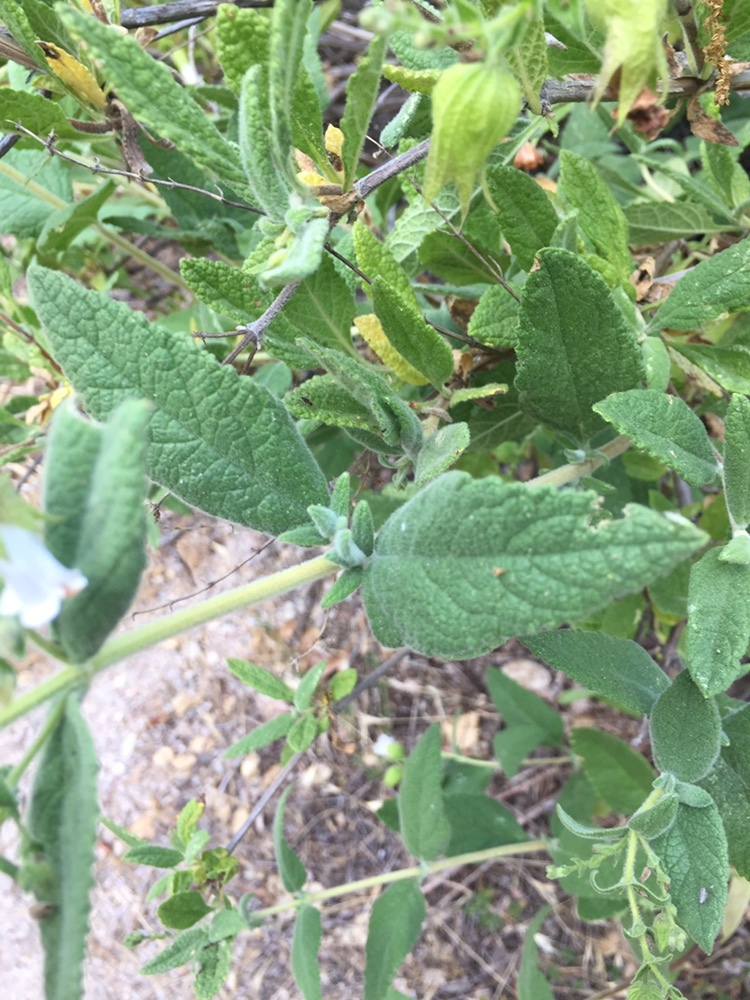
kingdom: Plantae
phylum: Tracheophyta
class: Magnoliopsida
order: Lamiales
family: Lamiaceae
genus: Lepechinia
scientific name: Lepechinia calycina
